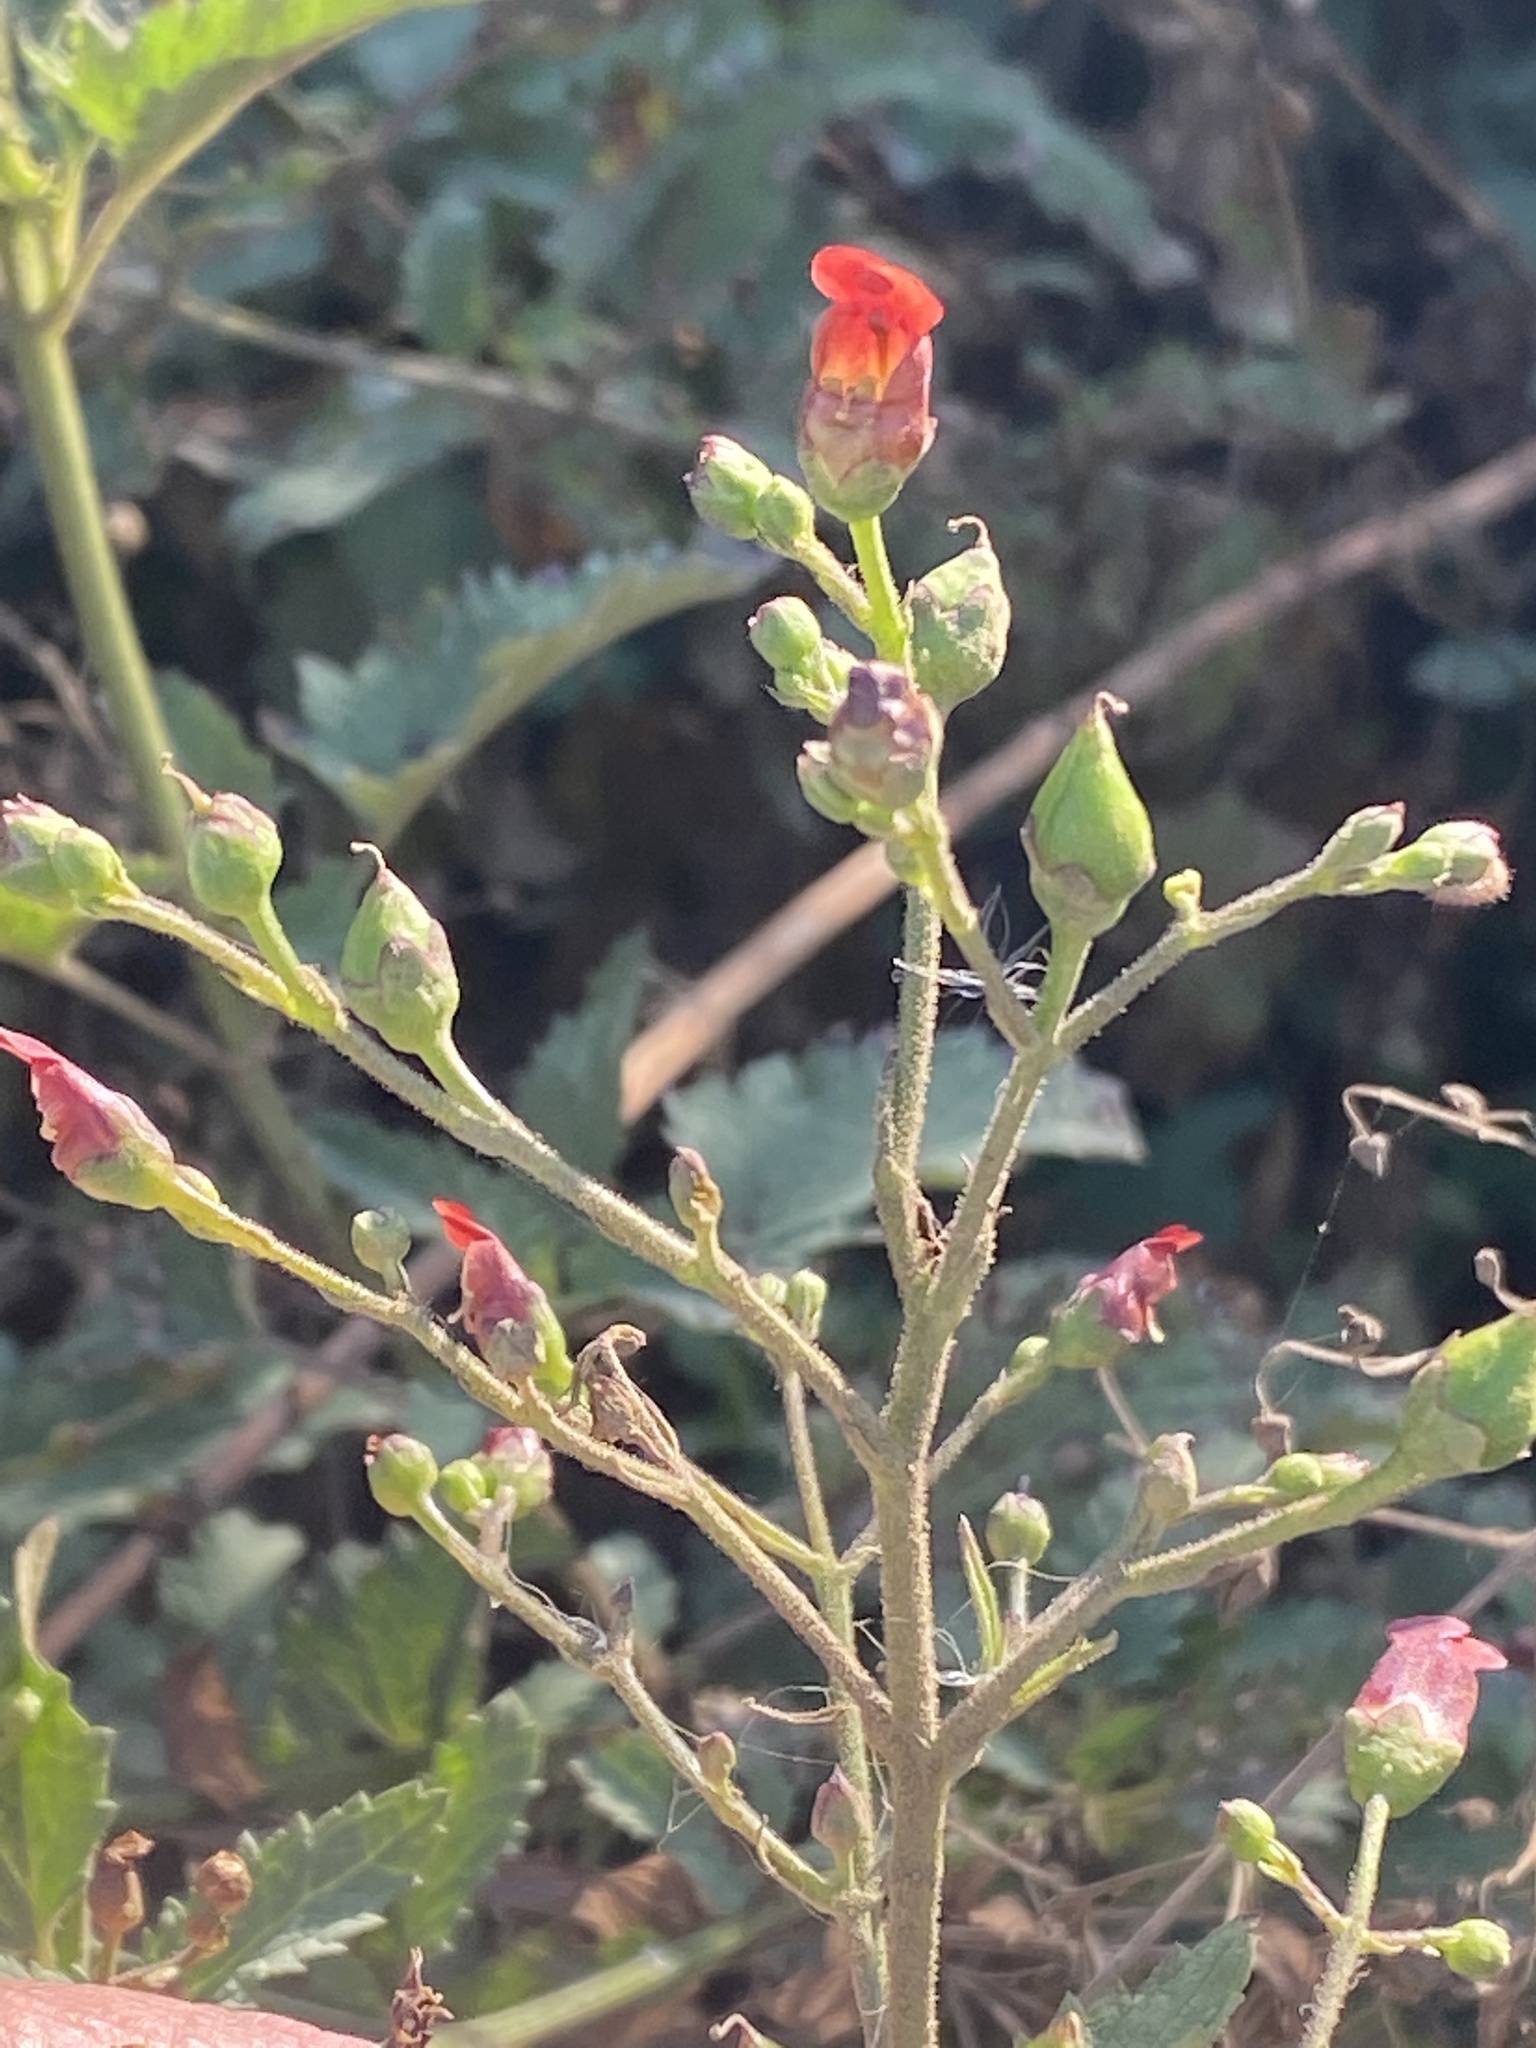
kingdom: Plantae
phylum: Tracheophyta
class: Magnoliopsida
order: Lamiales
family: Scrophulariaceae
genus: Scrophularia
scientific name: Scrophularia californica
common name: California figwort
